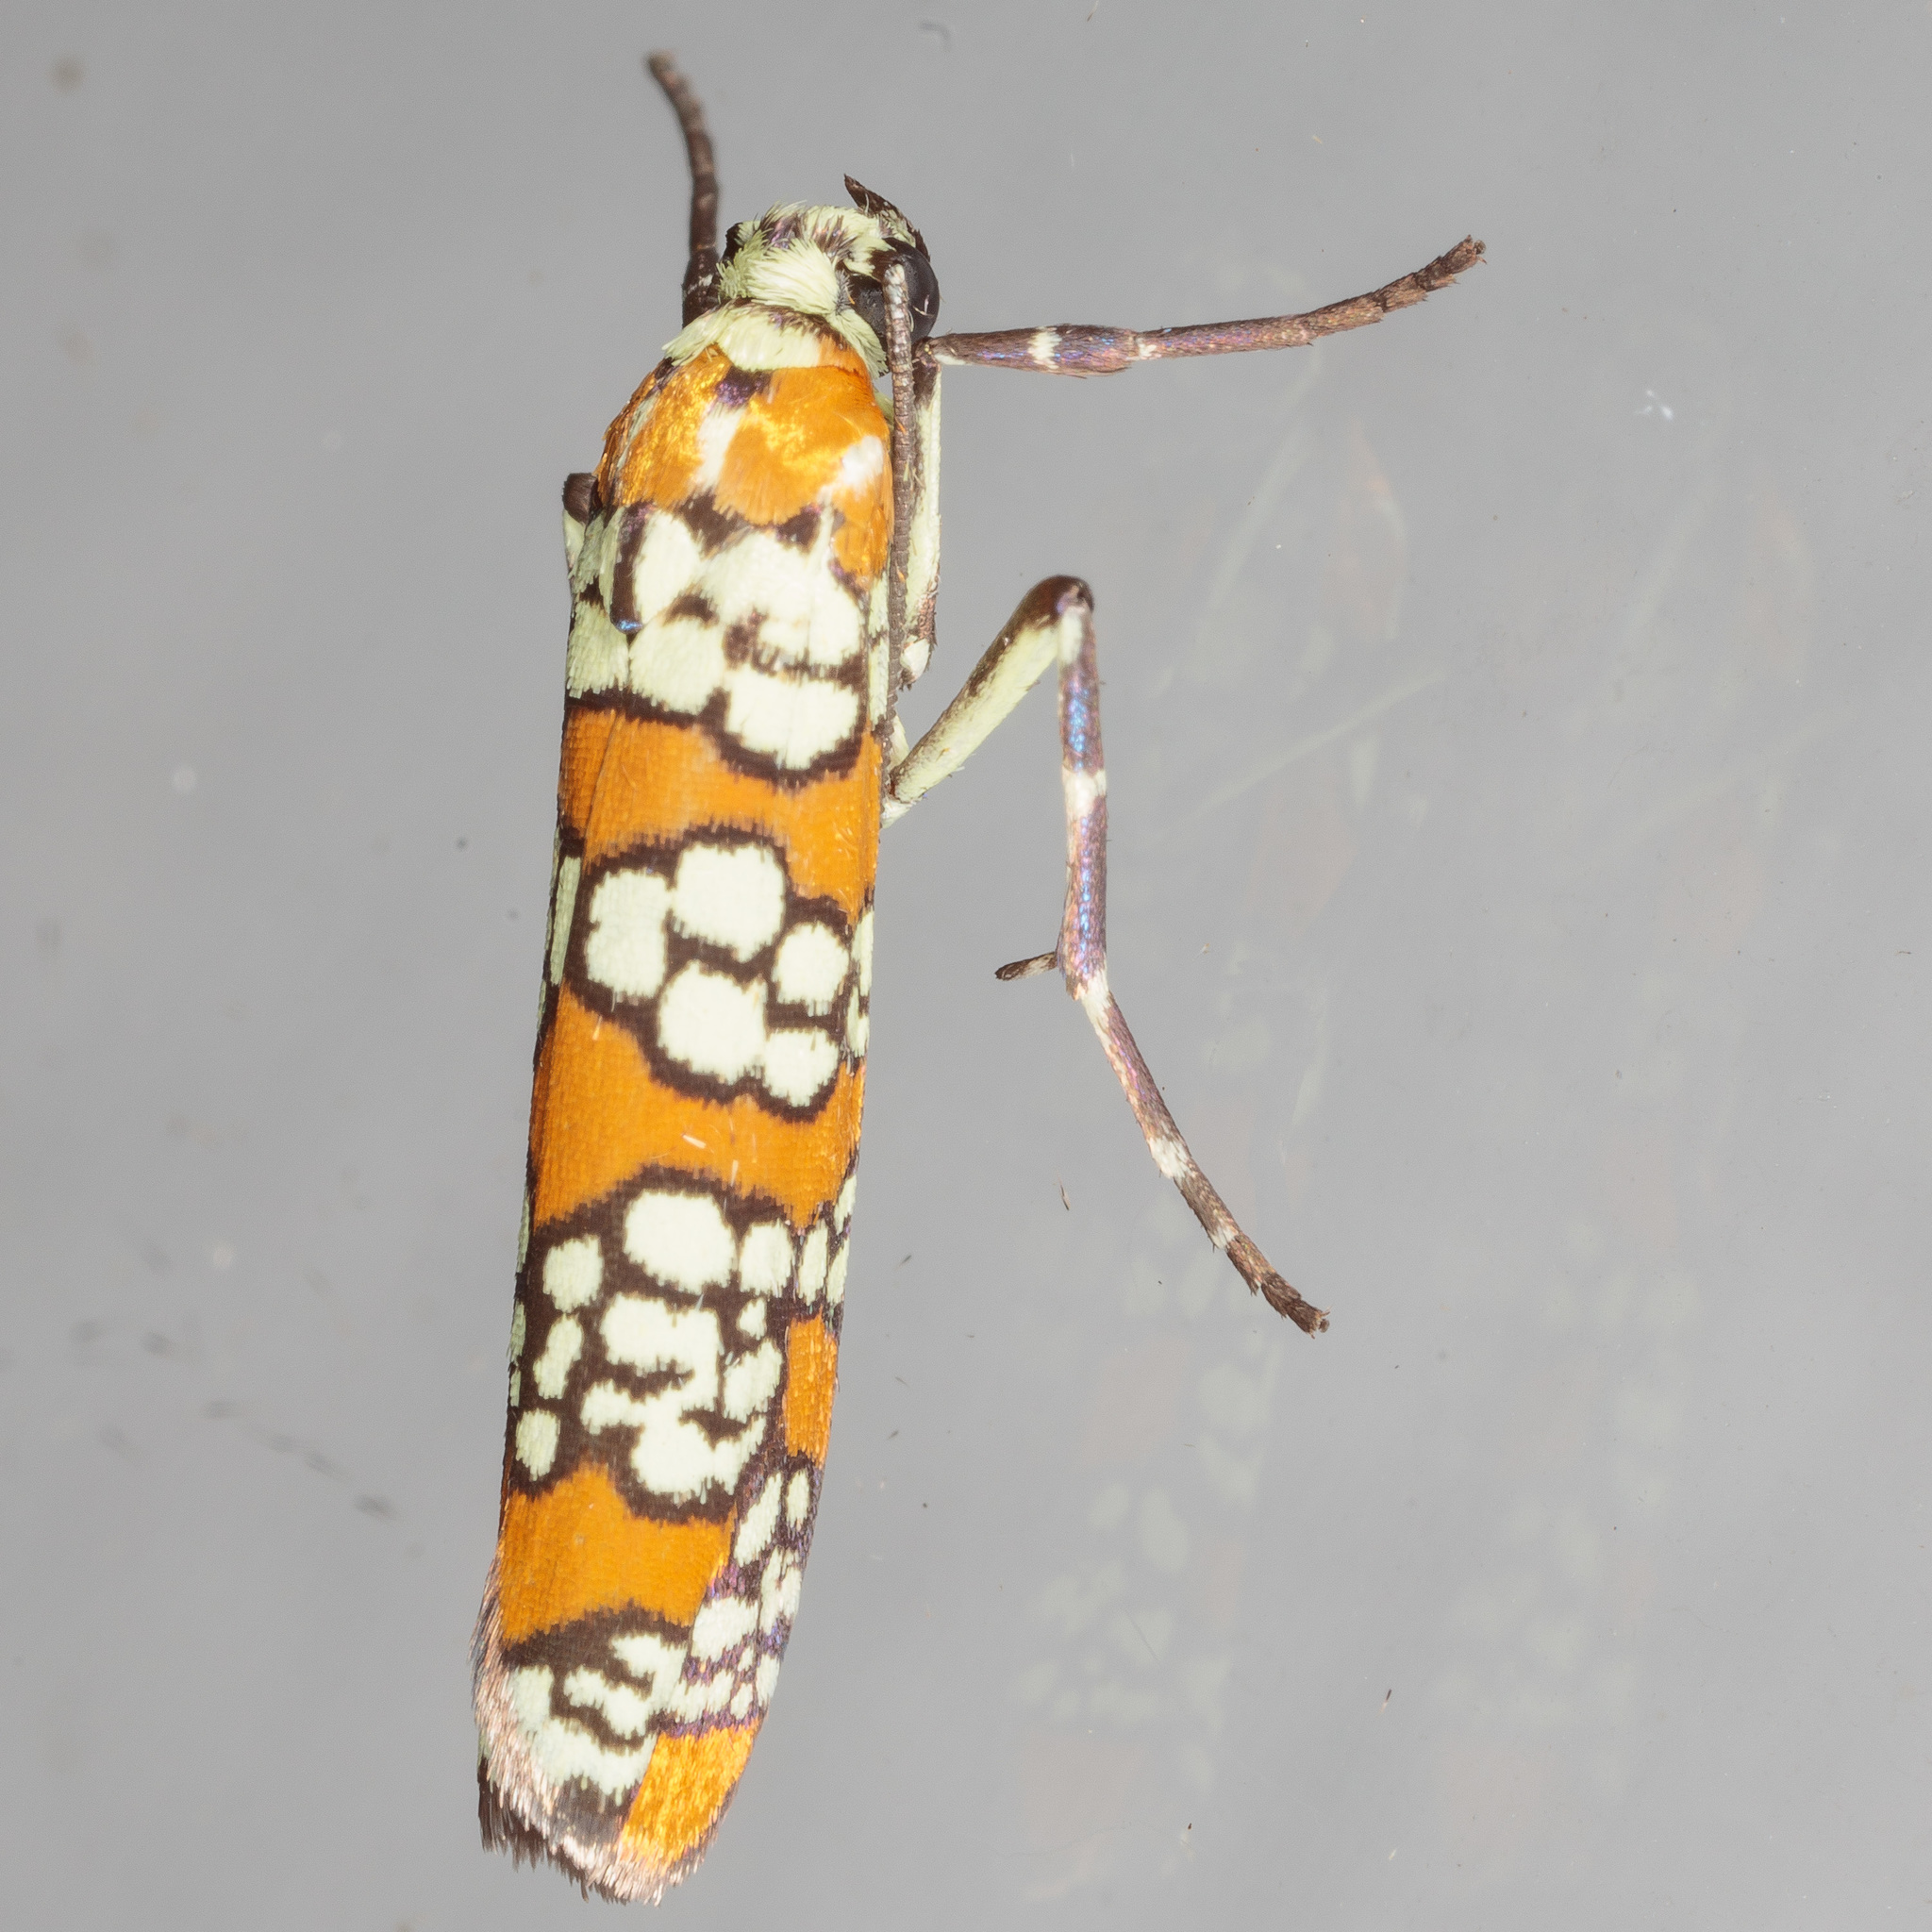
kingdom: Animalia
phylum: Arthropoda
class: Insecta
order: Lepidoptera
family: Attevidae
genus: Atteva
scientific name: Atteva punctella
